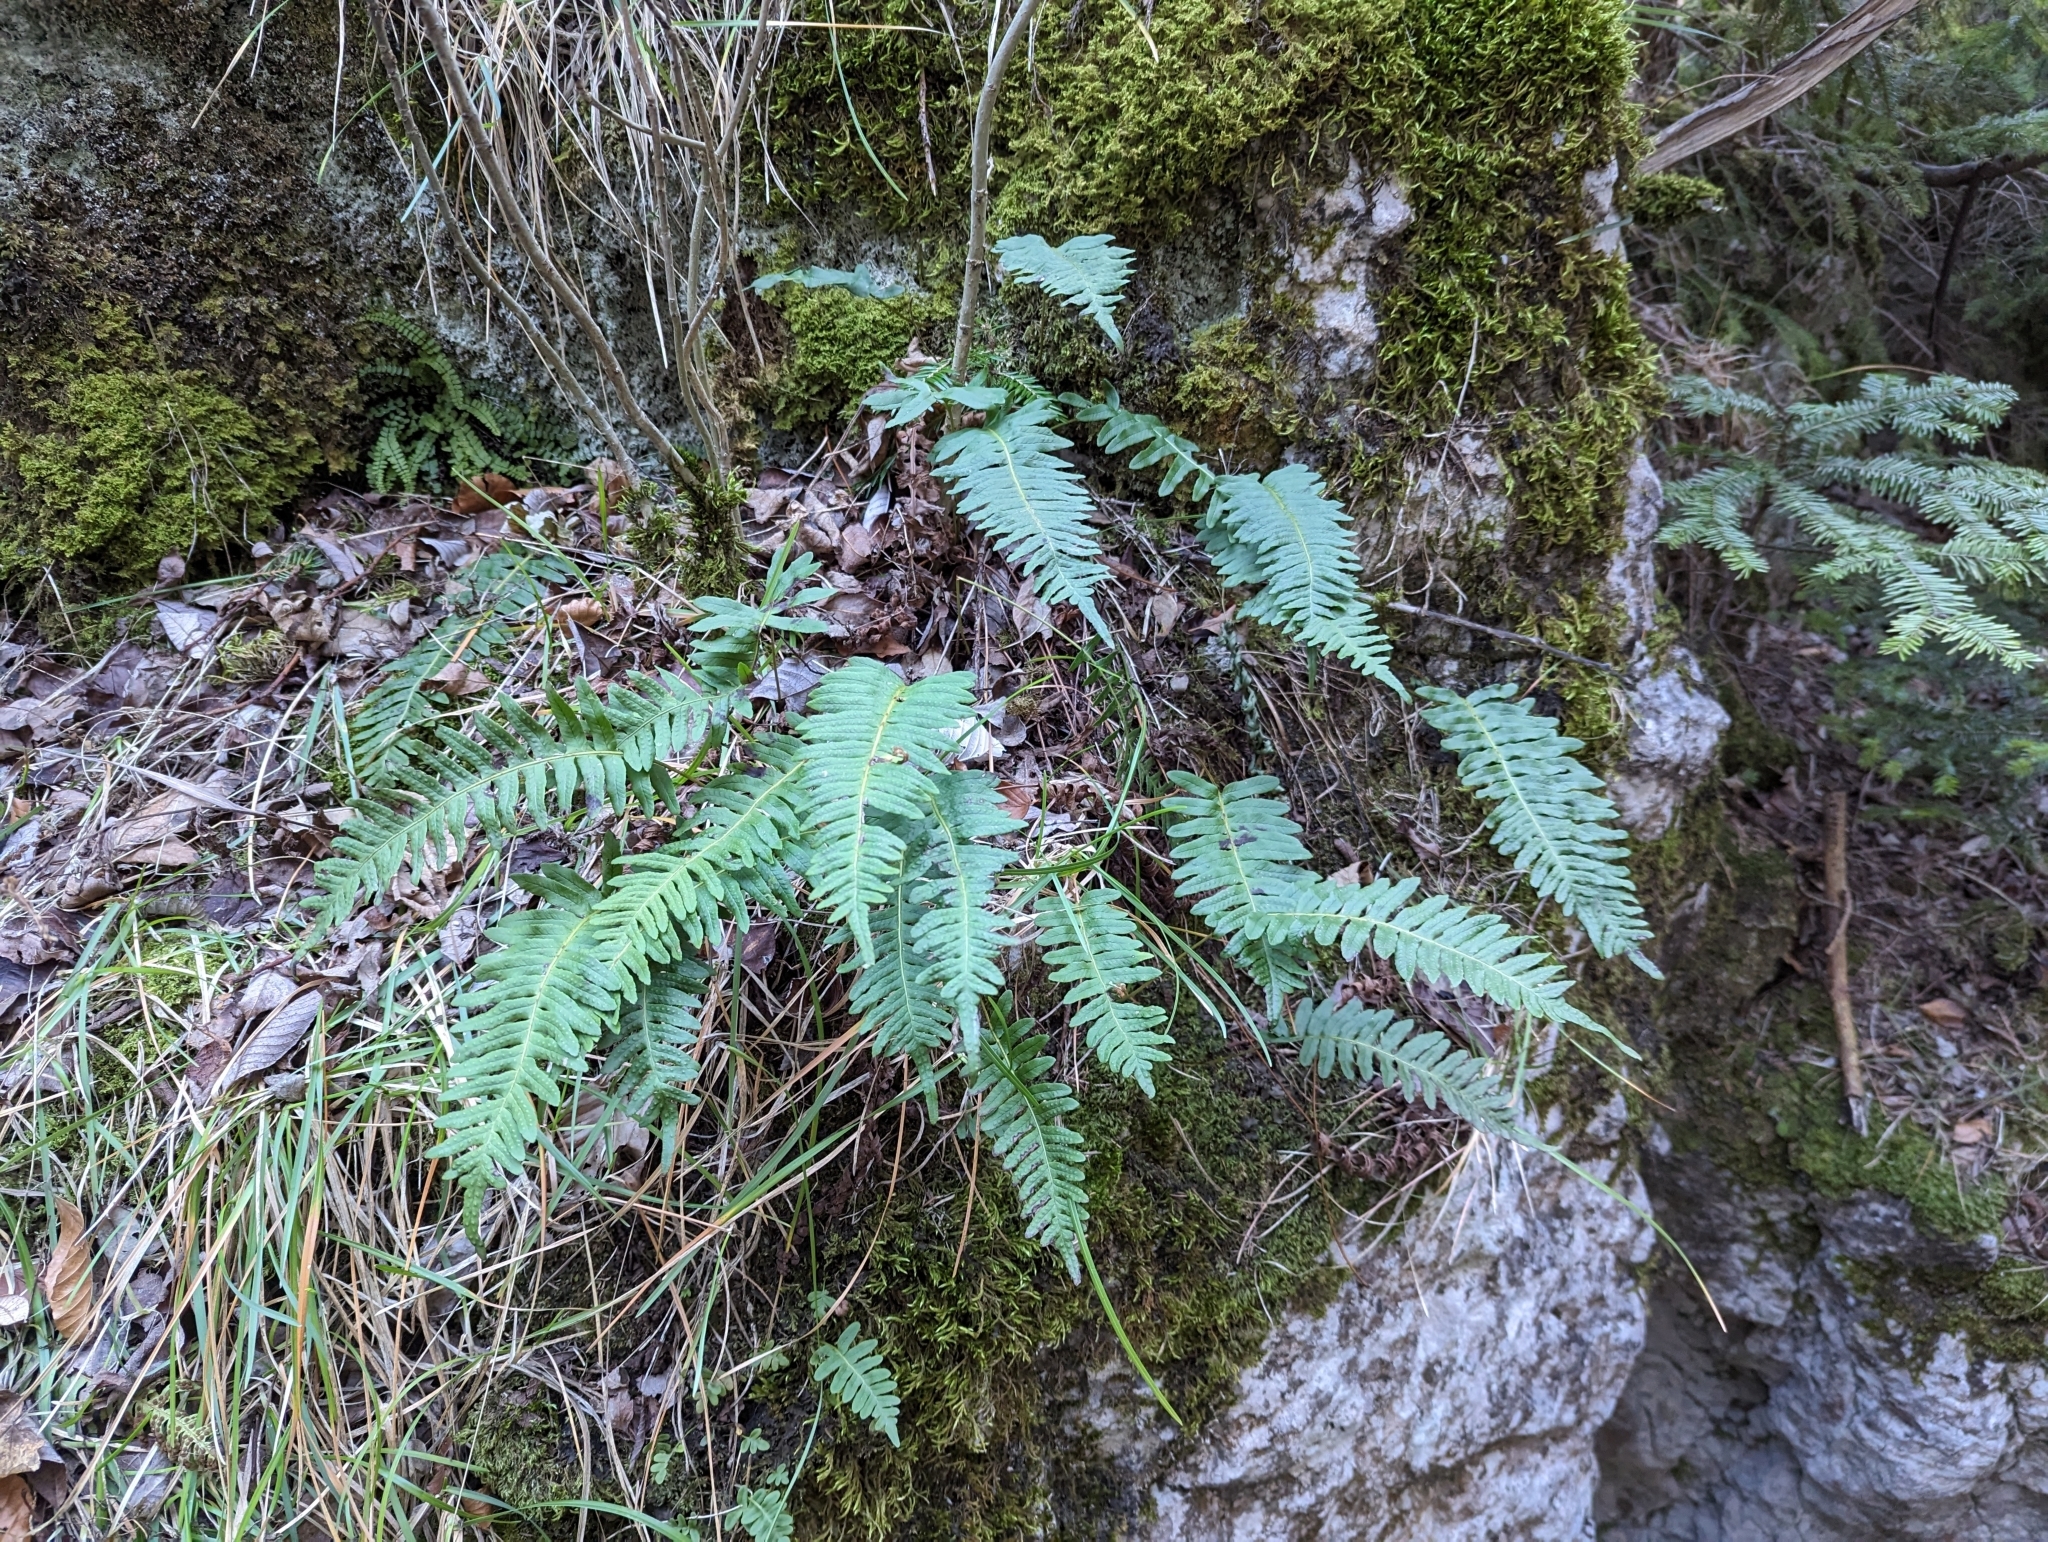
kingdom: Plantae
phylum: Tracheophyta
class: Polypodiopsida
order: Polypodiales
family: Polypodiaceae
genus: Polypodium
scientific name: Polypodium vulgare
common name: Common polypody
